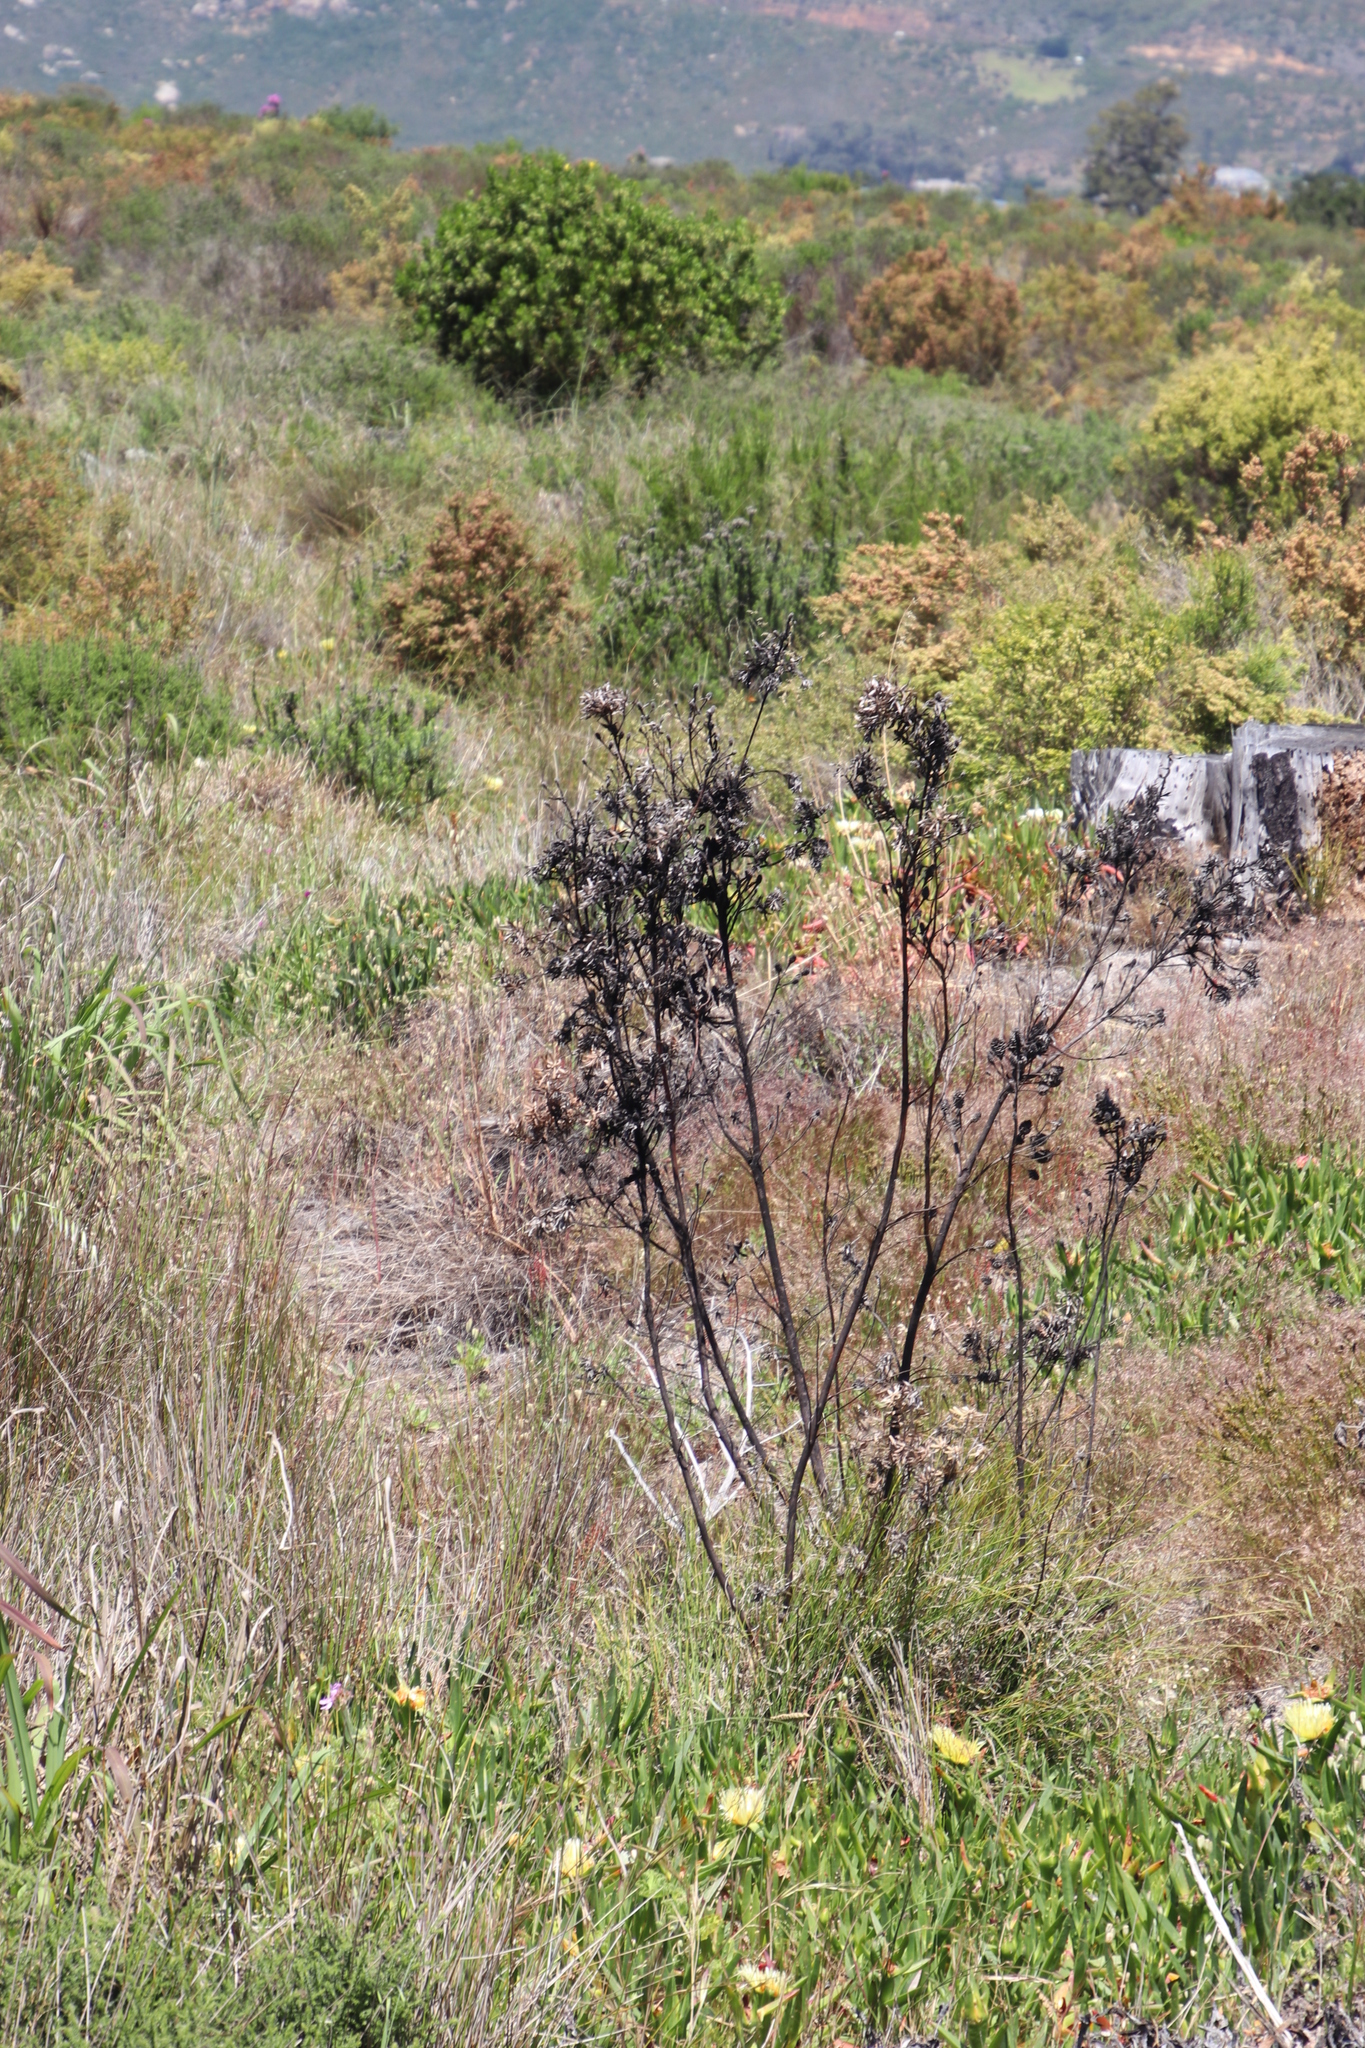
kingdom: Plantae
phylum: Tracheophyta
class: Magnoliopsida
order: Proteales
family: Proteaceae
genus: Leucadendron
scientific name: Leucadendron floridum
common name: Flats conebush
